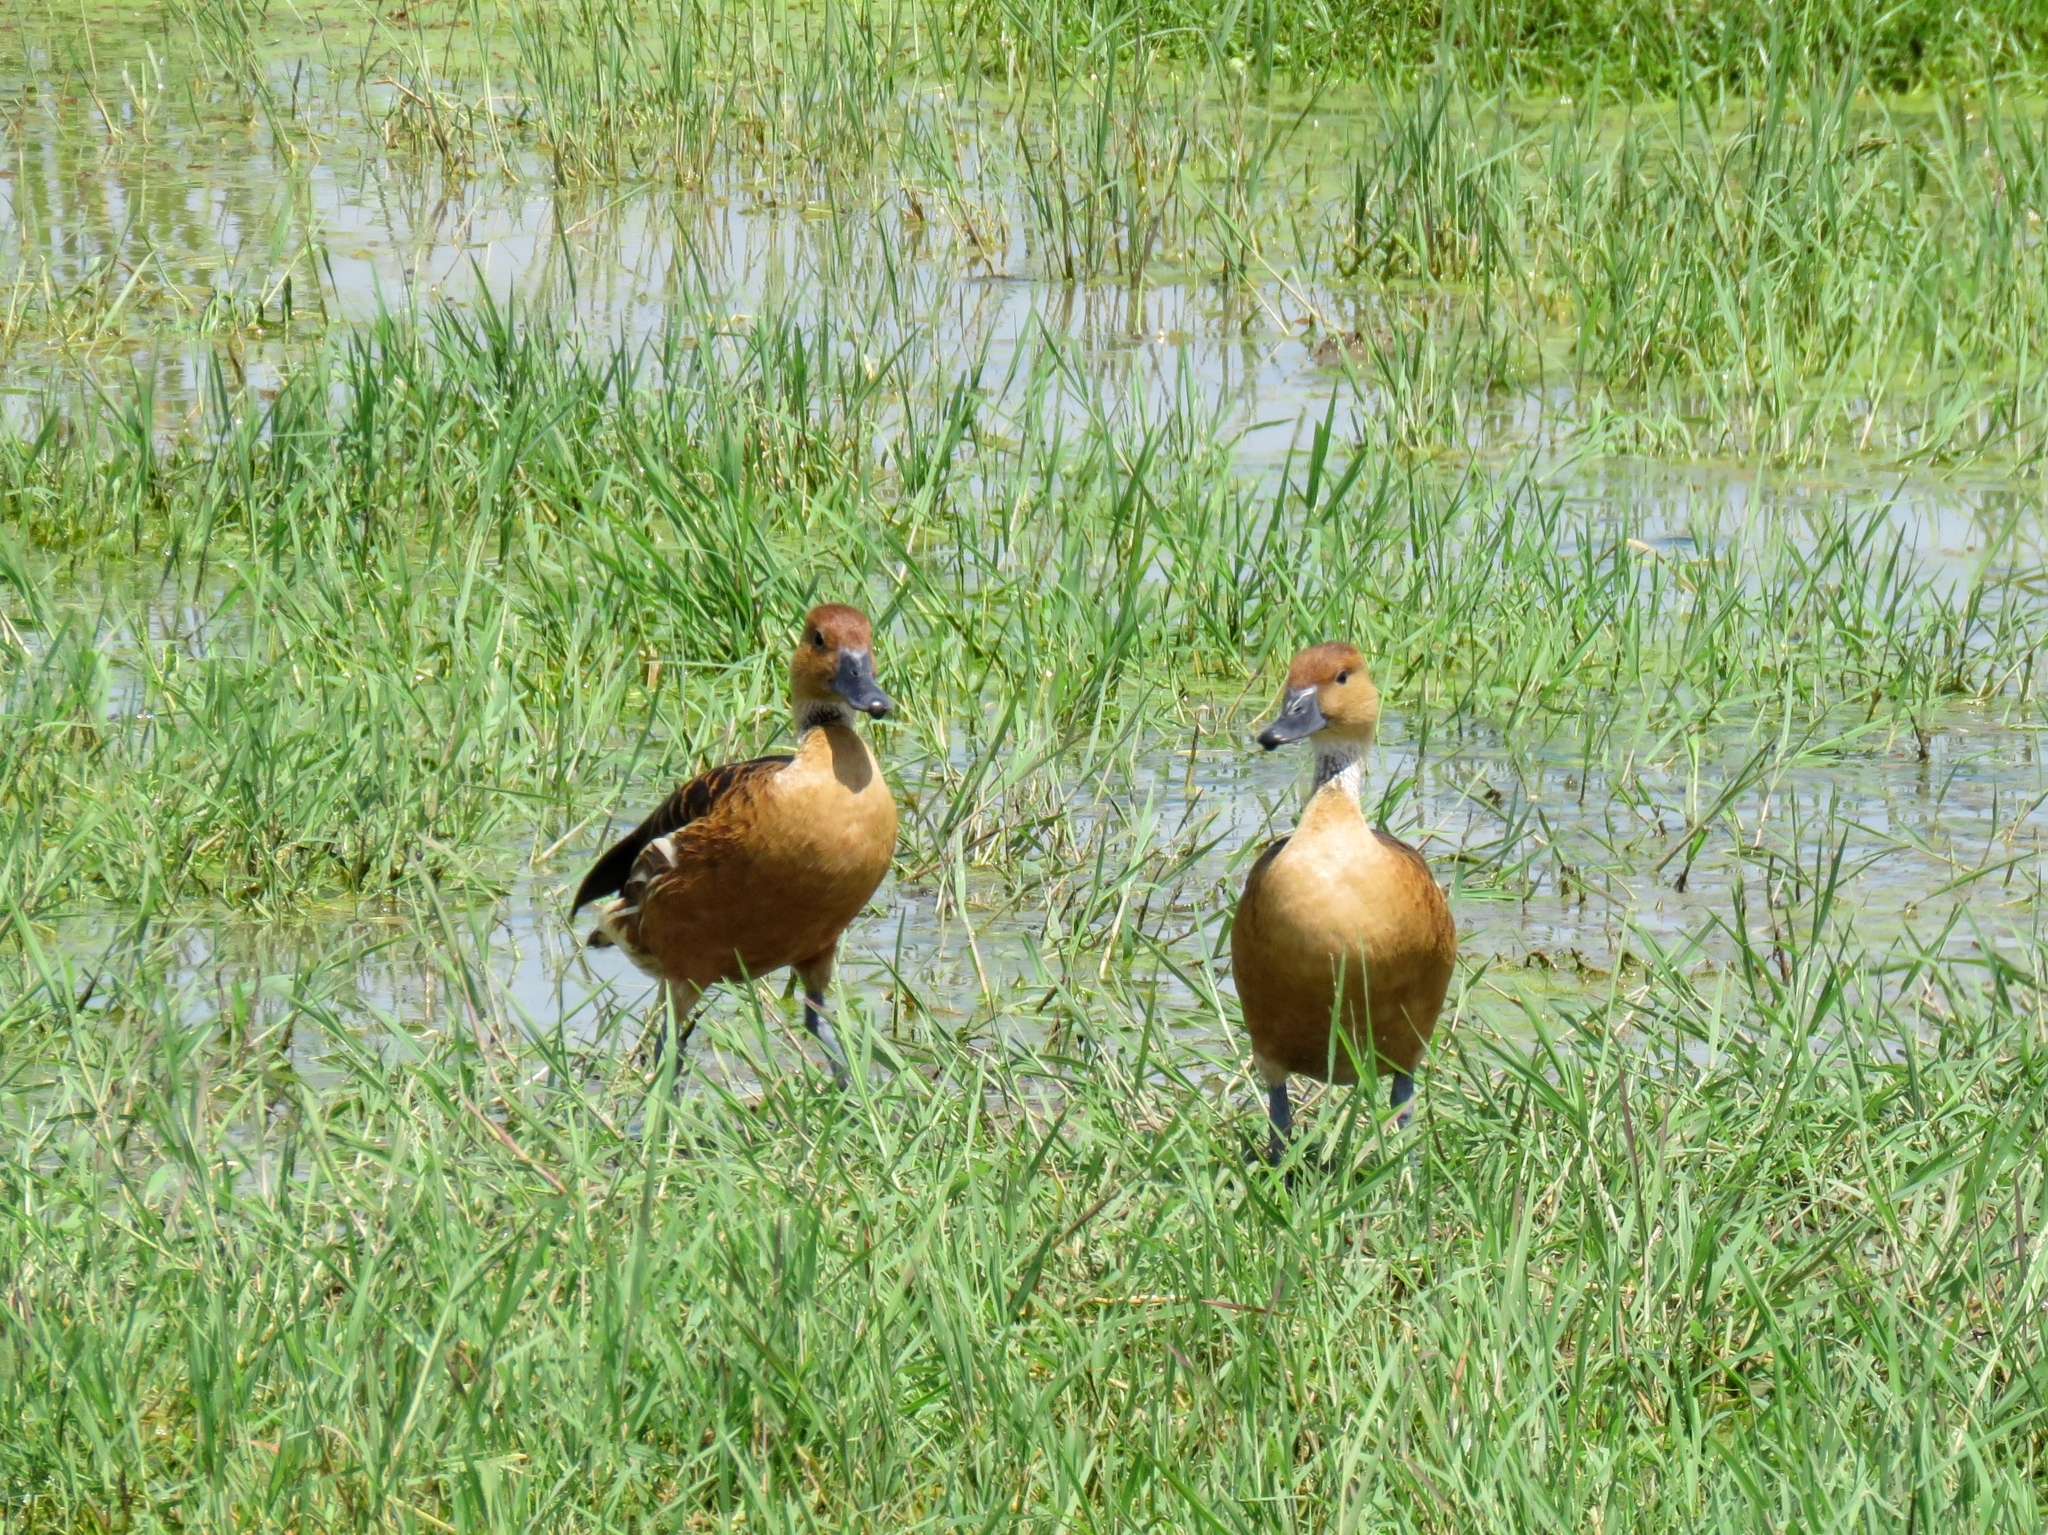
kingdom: Animalia
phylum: Chordata
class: Aves
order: Anseriformes
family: Anatidae
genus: Dendrocygna
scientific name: Dendrocygna bicolor
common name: Fulvous whistling duck
